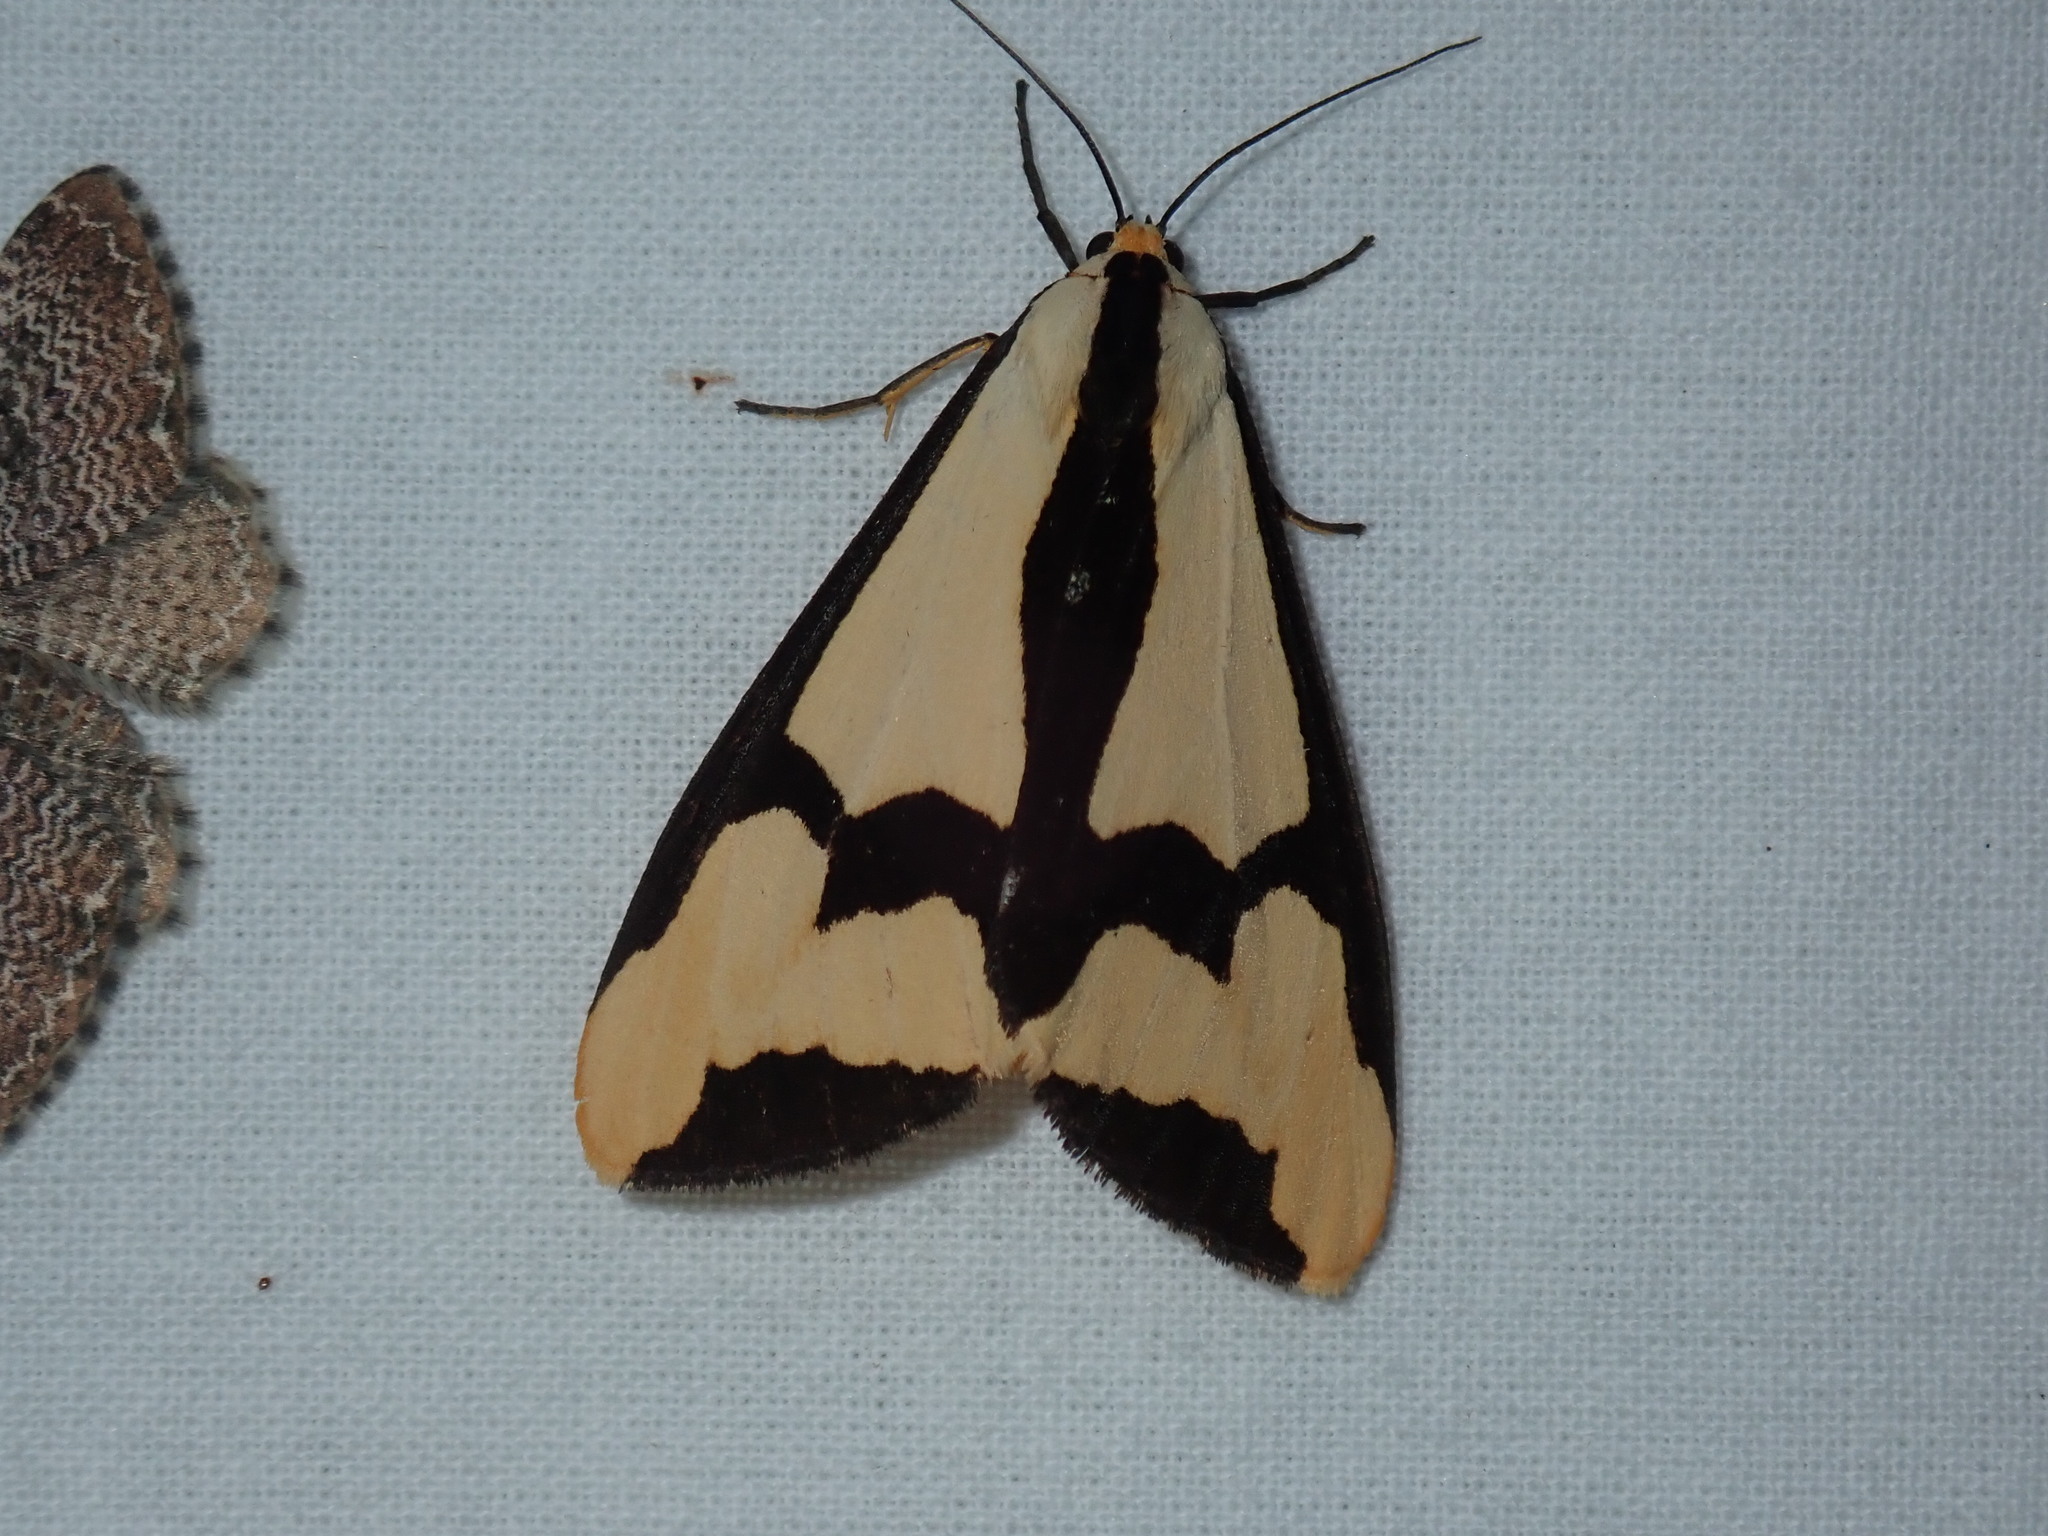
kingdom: Animalia
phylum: Arthropoda
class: Insecta
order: Lepidoptera
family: Erebidae
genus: Haploa
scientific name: Haploa clymene
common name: Clymene moth
